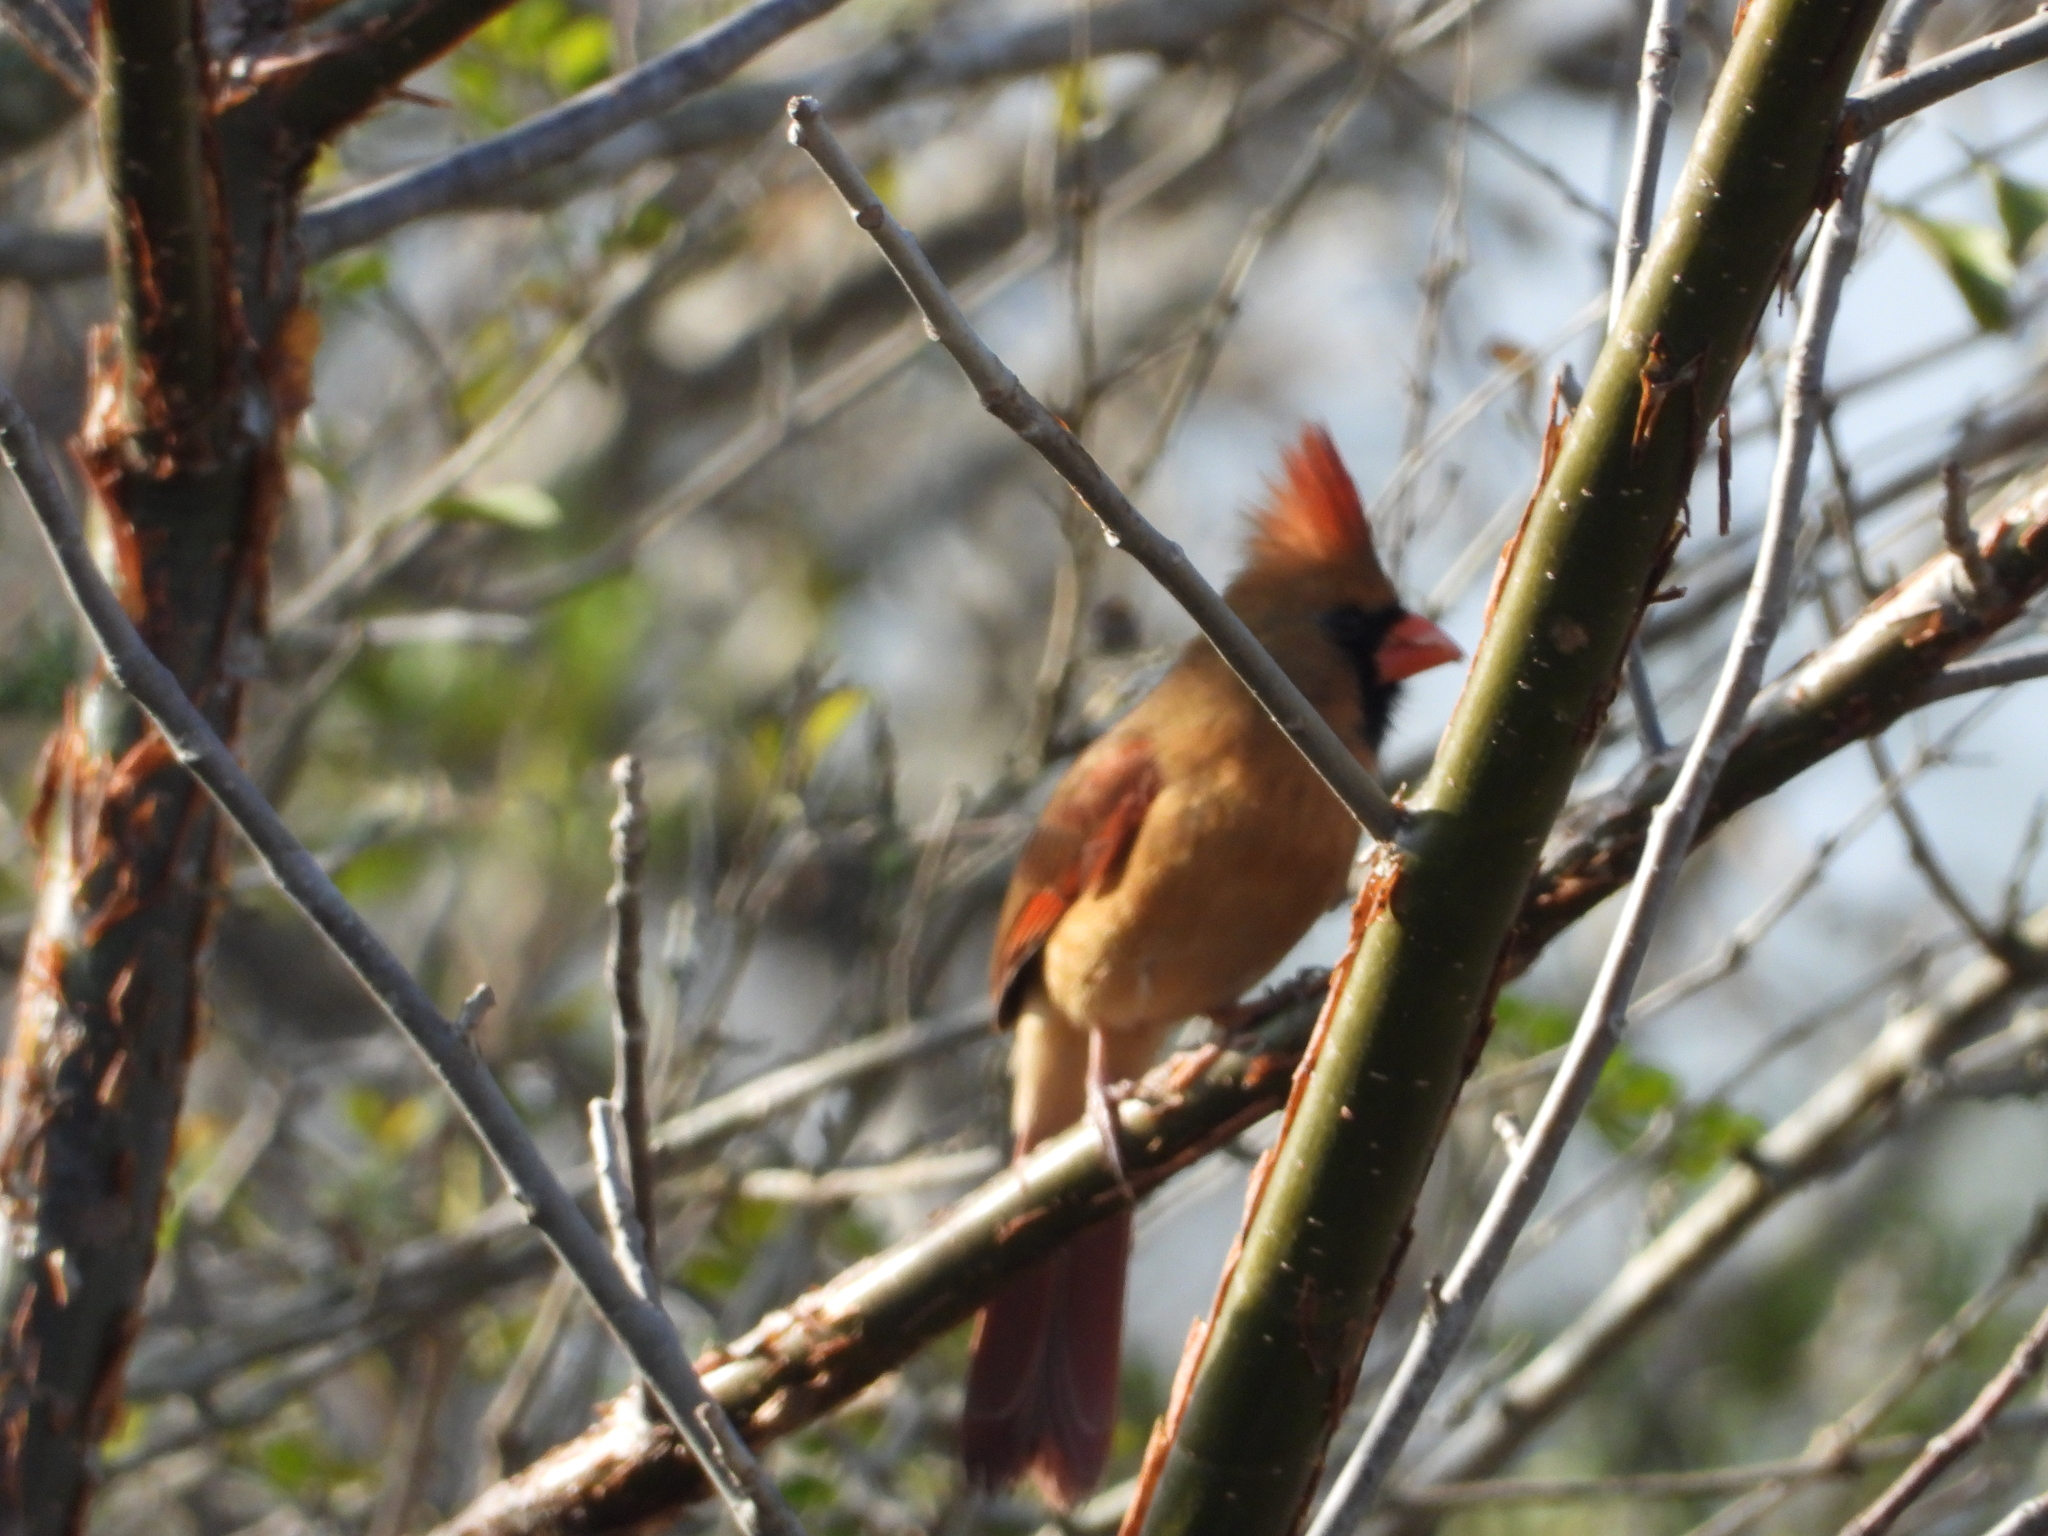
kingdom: Animalia
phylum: Chordata
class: Aves
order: Passeriformes
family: Cardinalidae
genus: Cardinalis
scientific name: Cardinalis cardinalis
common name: Northern cardinal
